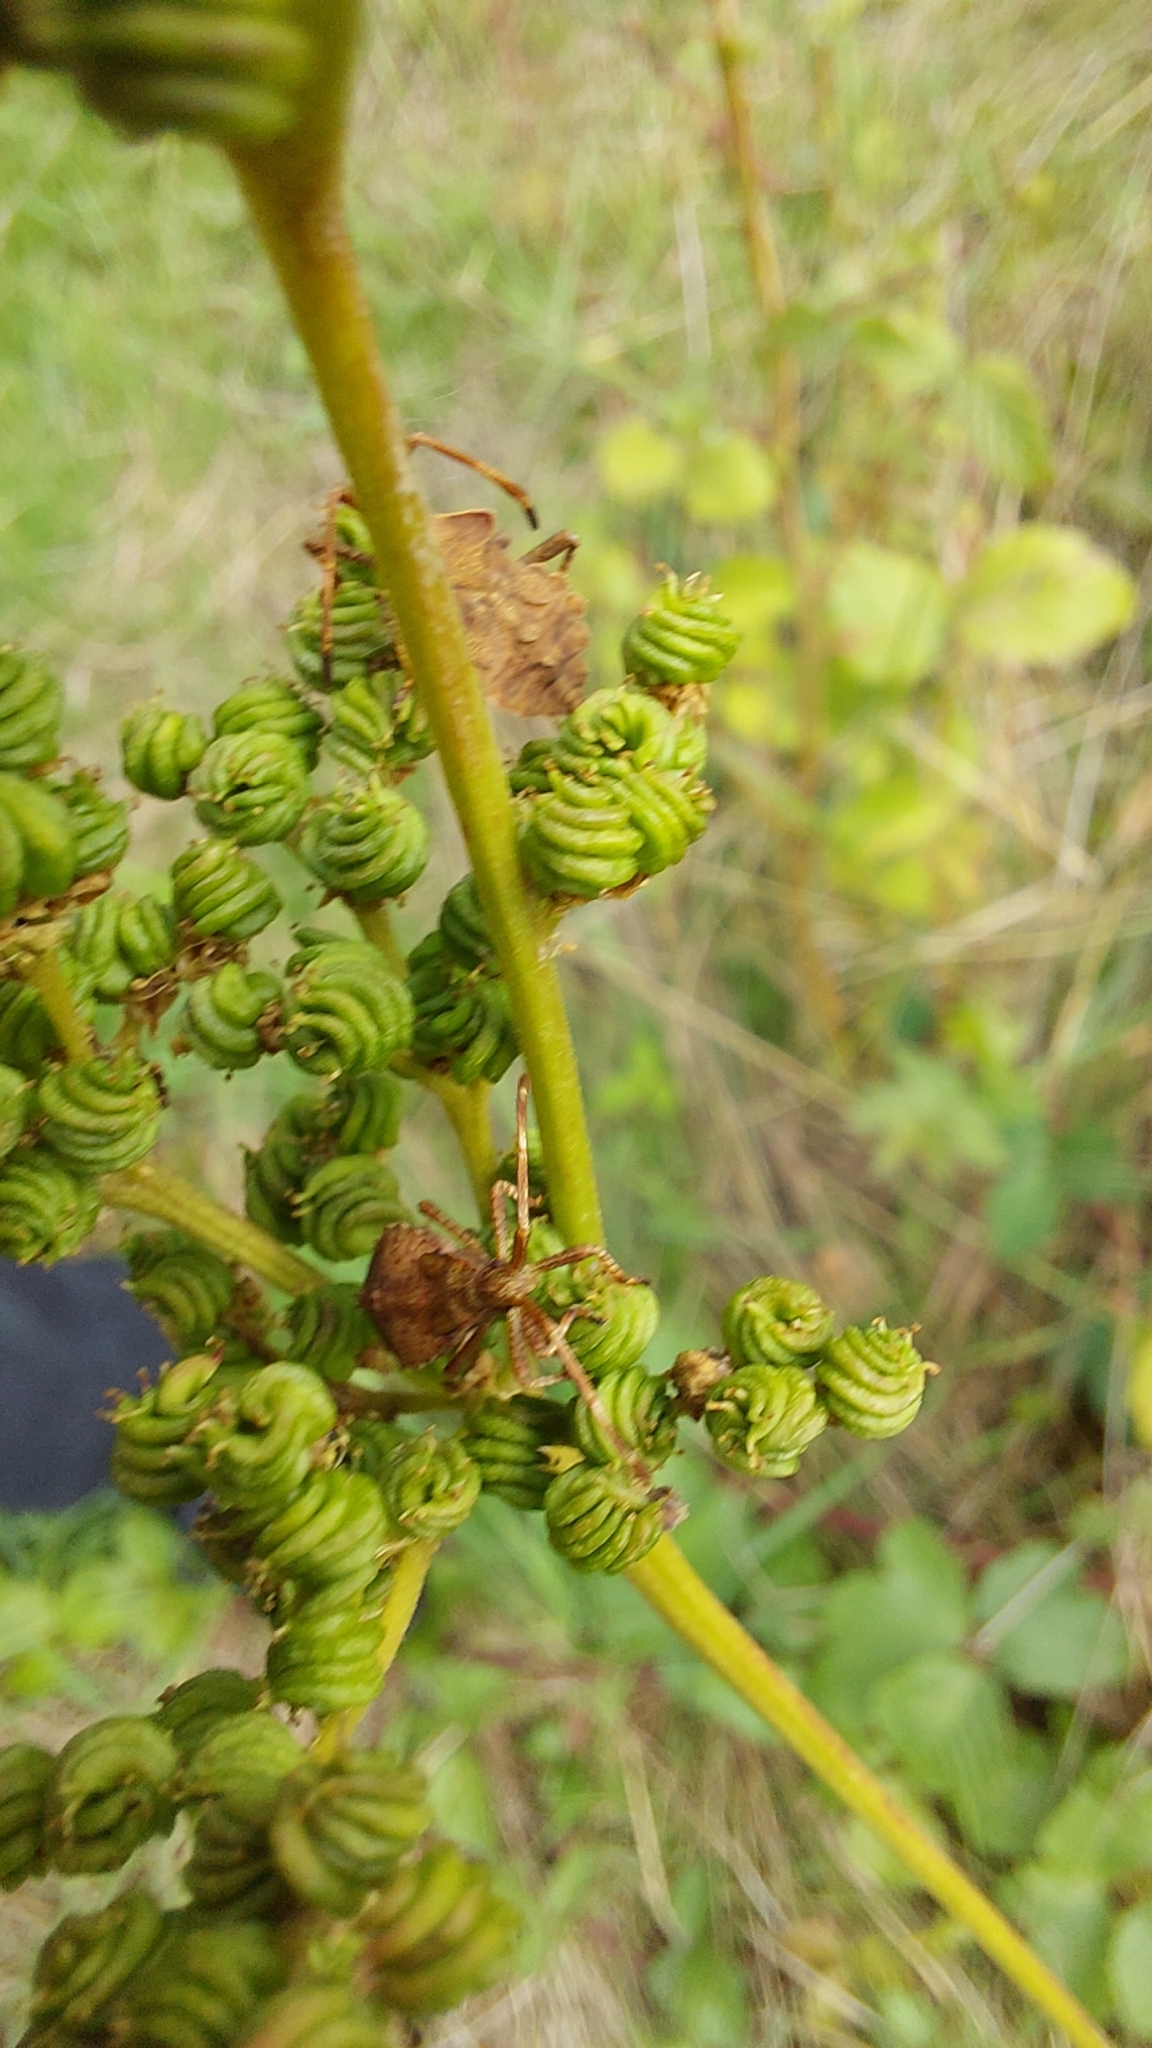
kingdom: Animalia
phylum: Arthropoda
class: Insecta
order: Hemiptera
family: Coreidae
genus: Coreus
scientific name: Coreus marginatus
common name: Dock bug
